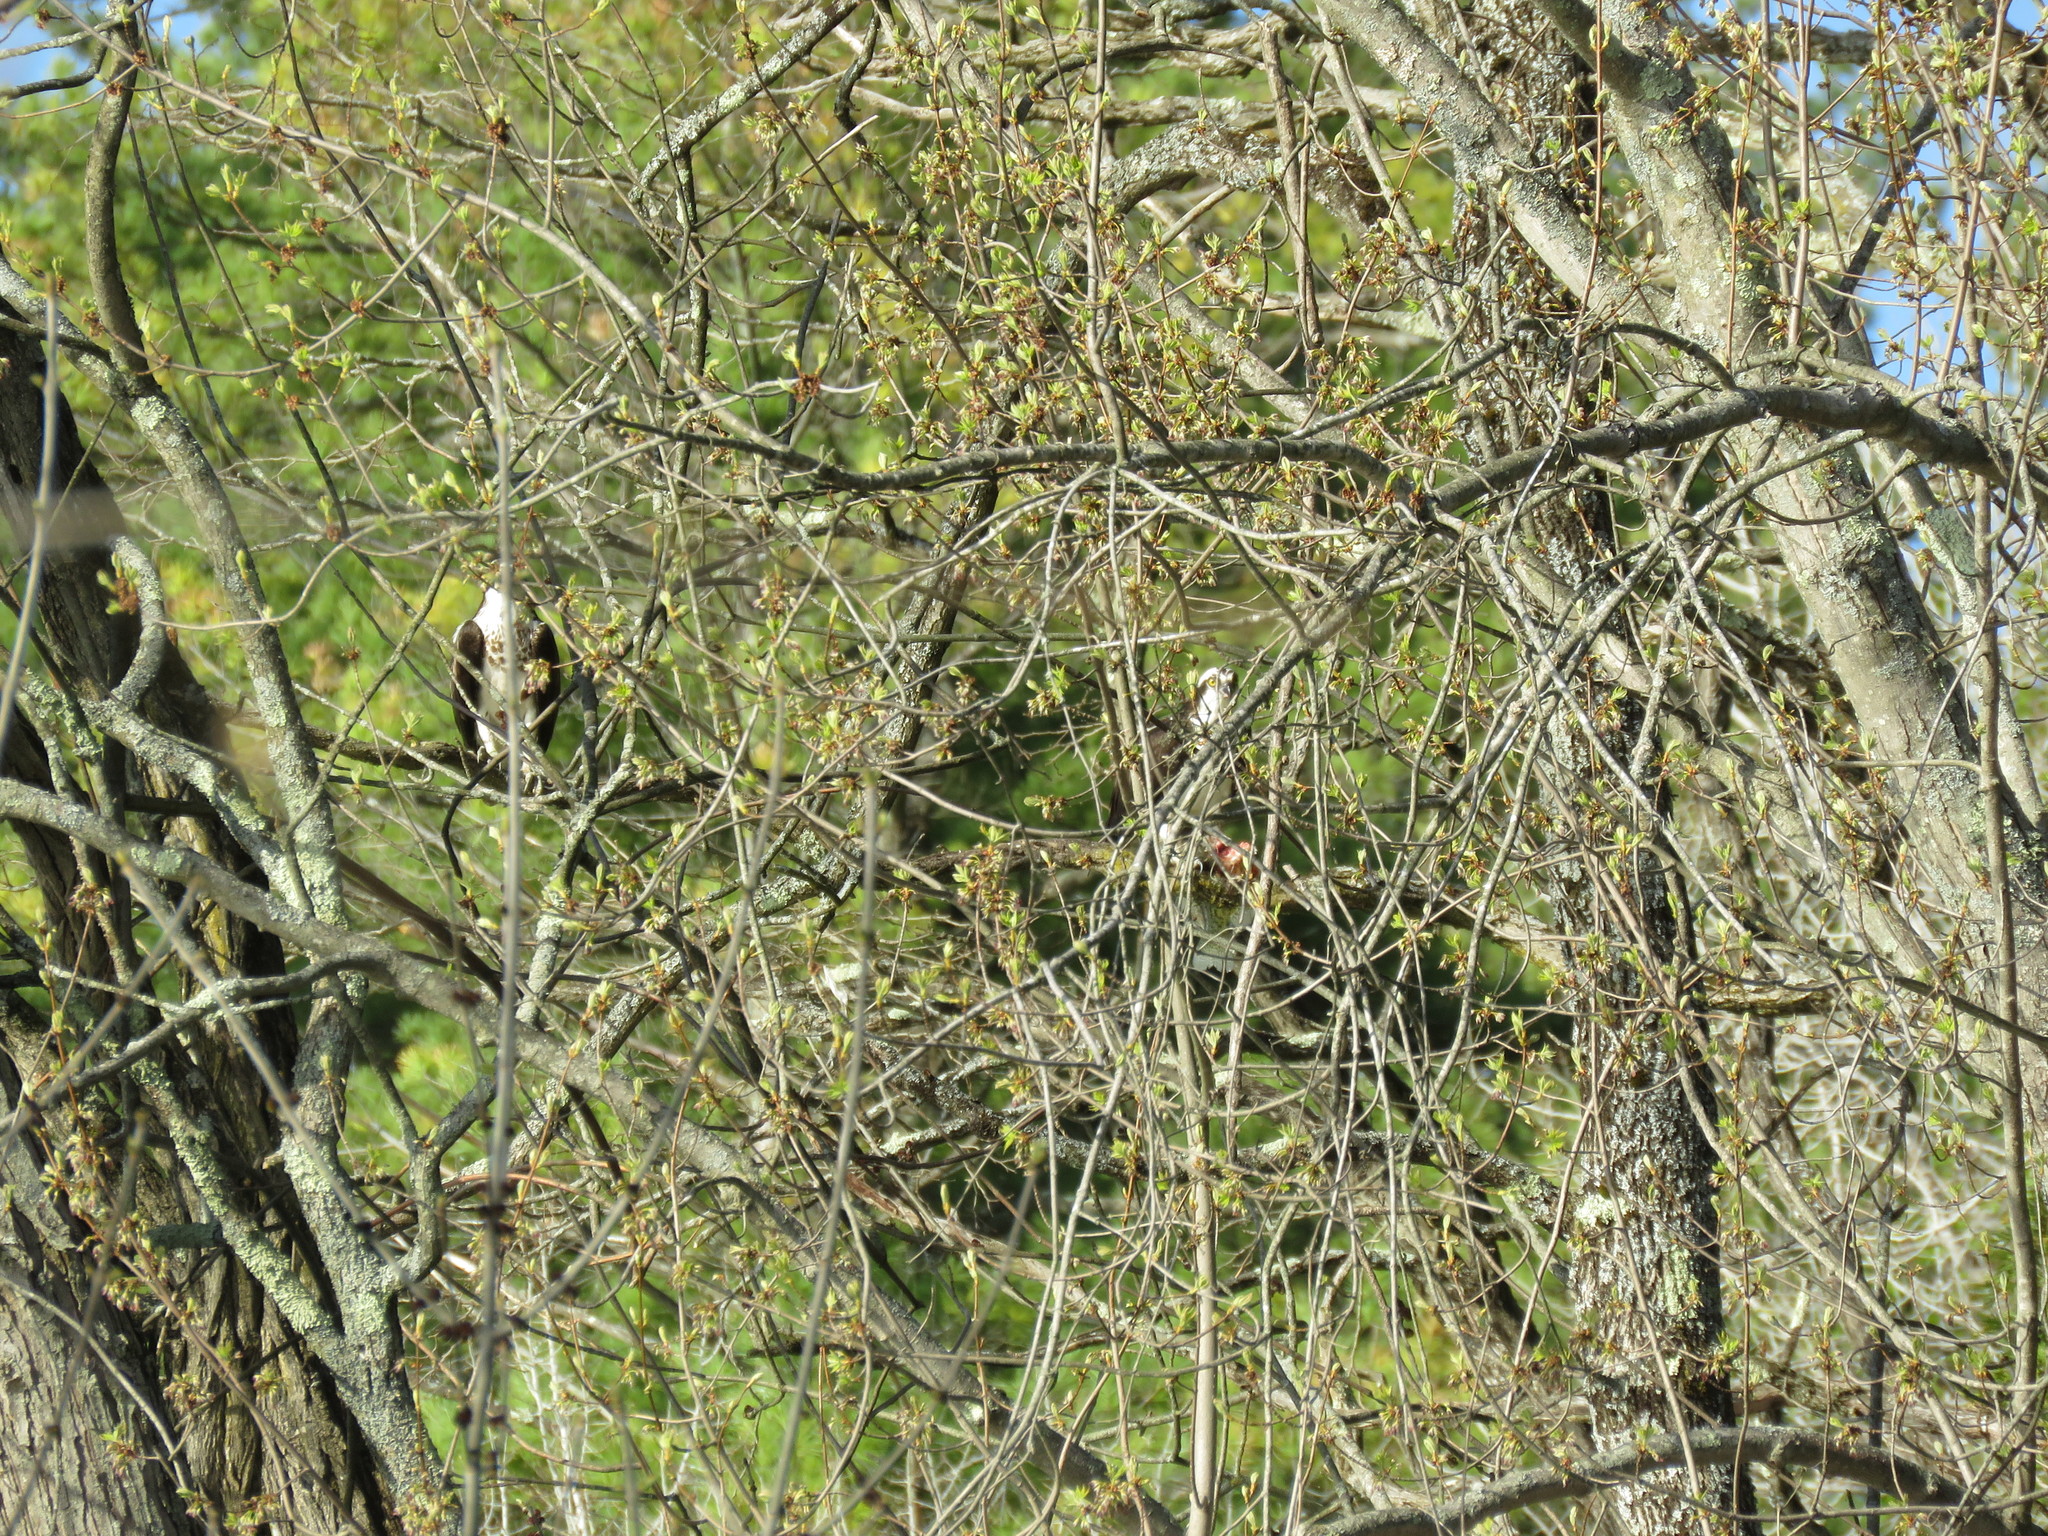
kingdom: Animalia
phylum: Chordata
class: Aves
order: Accipitriformes
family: Pandionidae
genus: Pandion
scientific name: Pandion haliaetus
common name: Osprey
